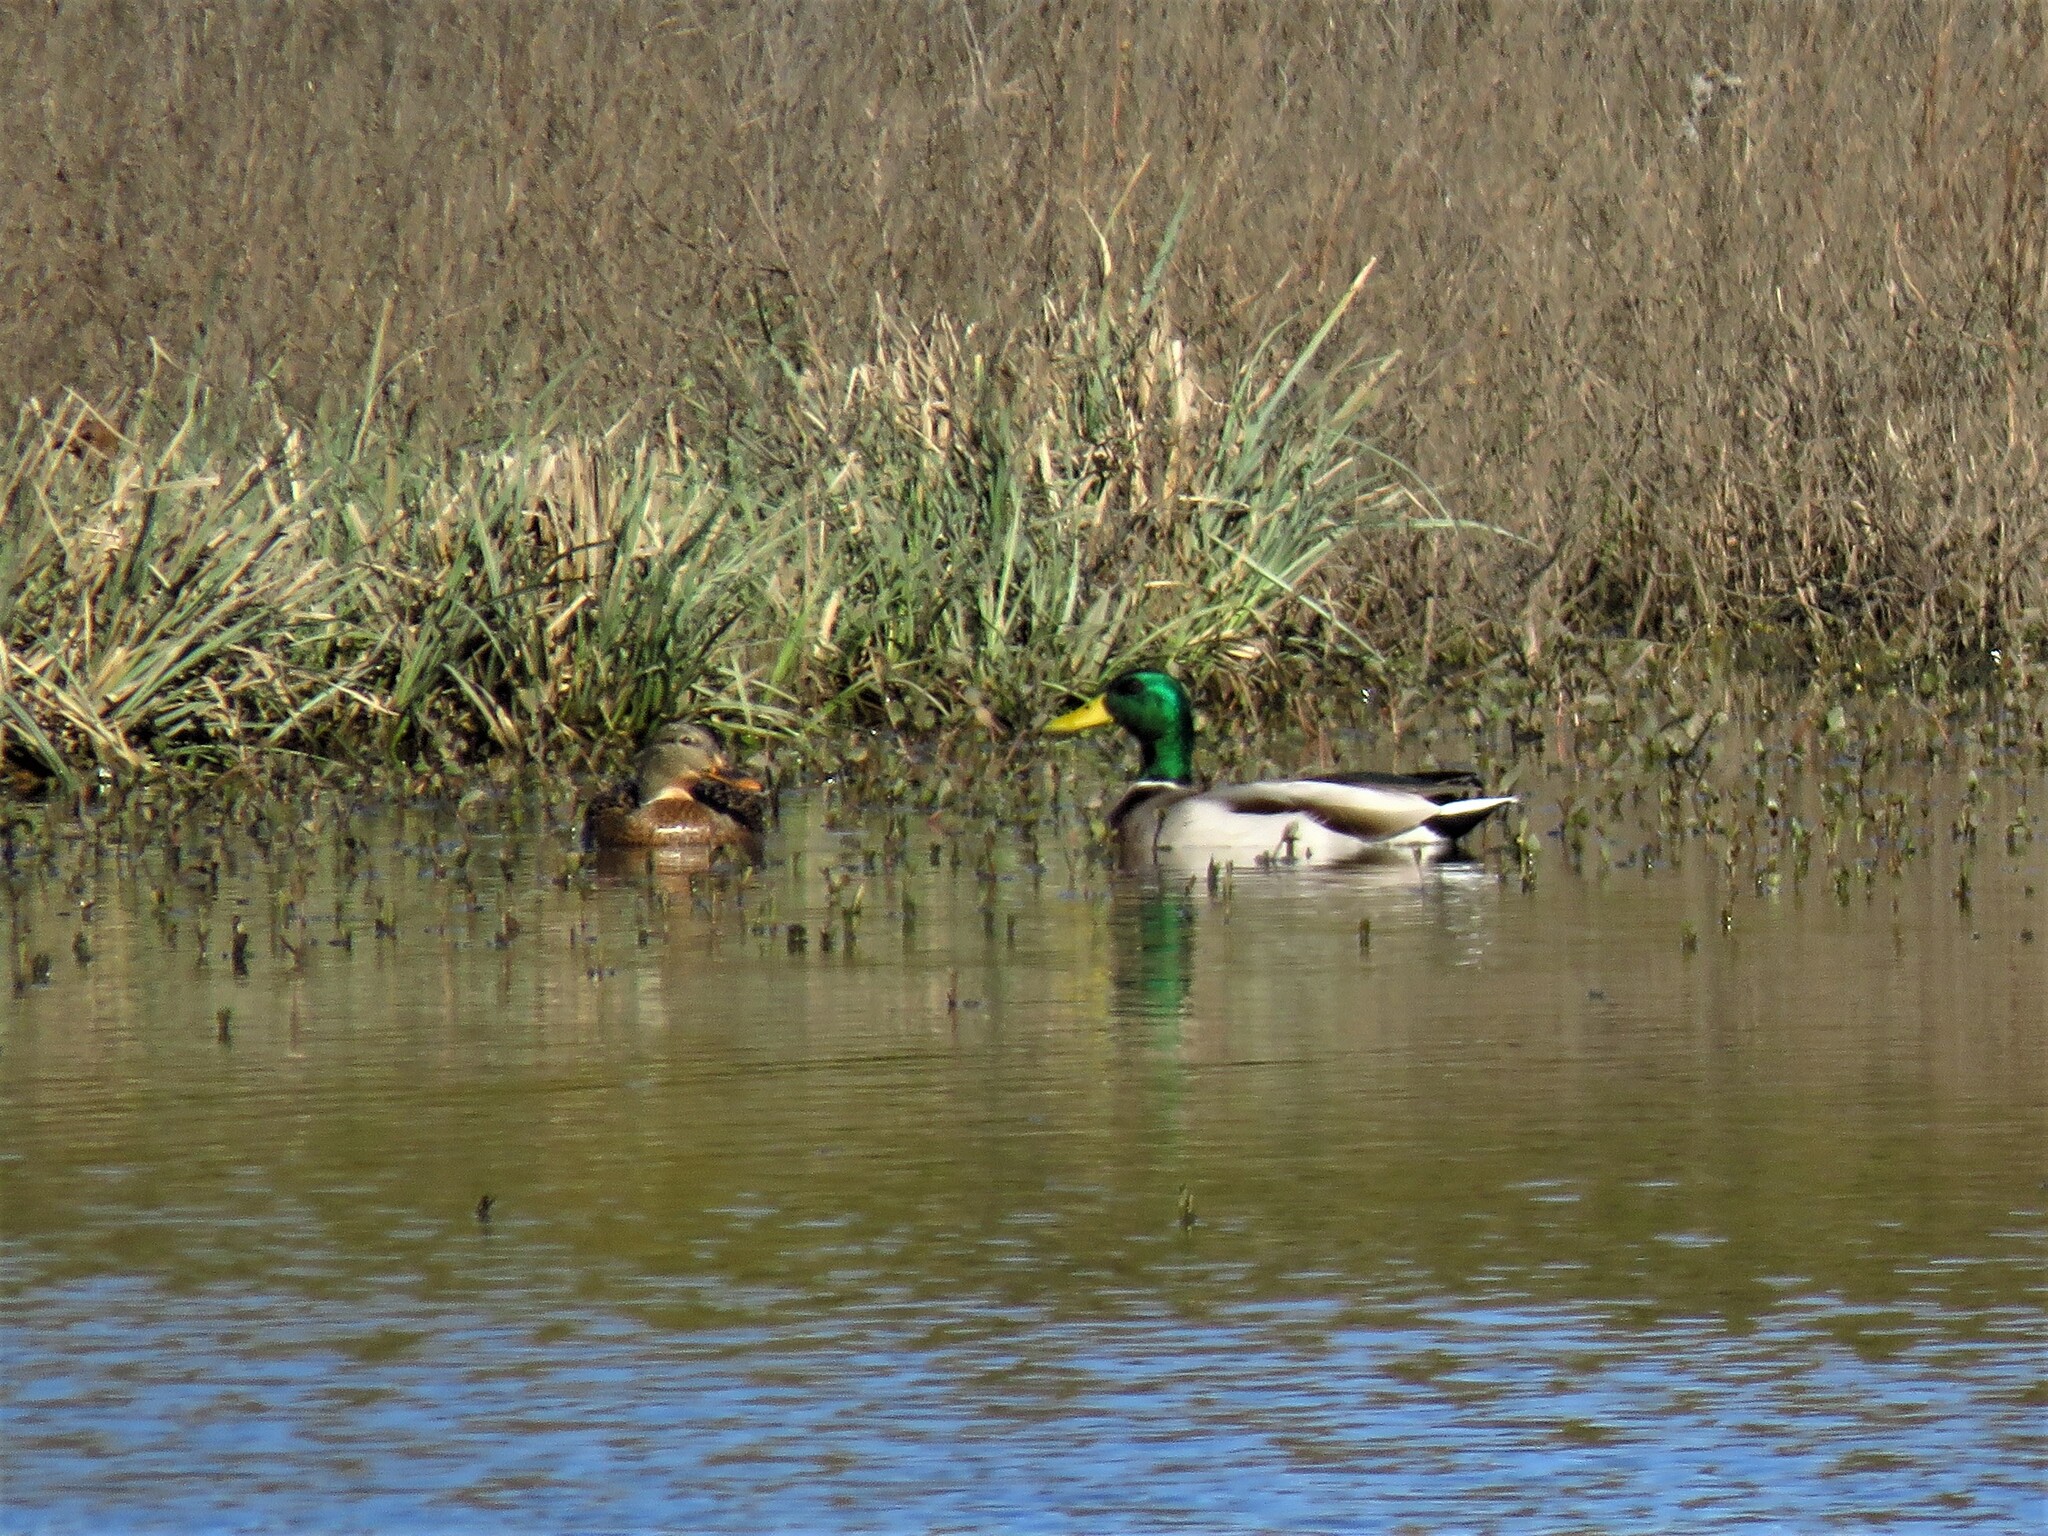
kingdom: Animalia
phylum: Chordata
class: Aves
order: Anseriformes
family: Anatidae
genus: Anas
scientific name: Anas platyrhynchos
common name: Mallard
